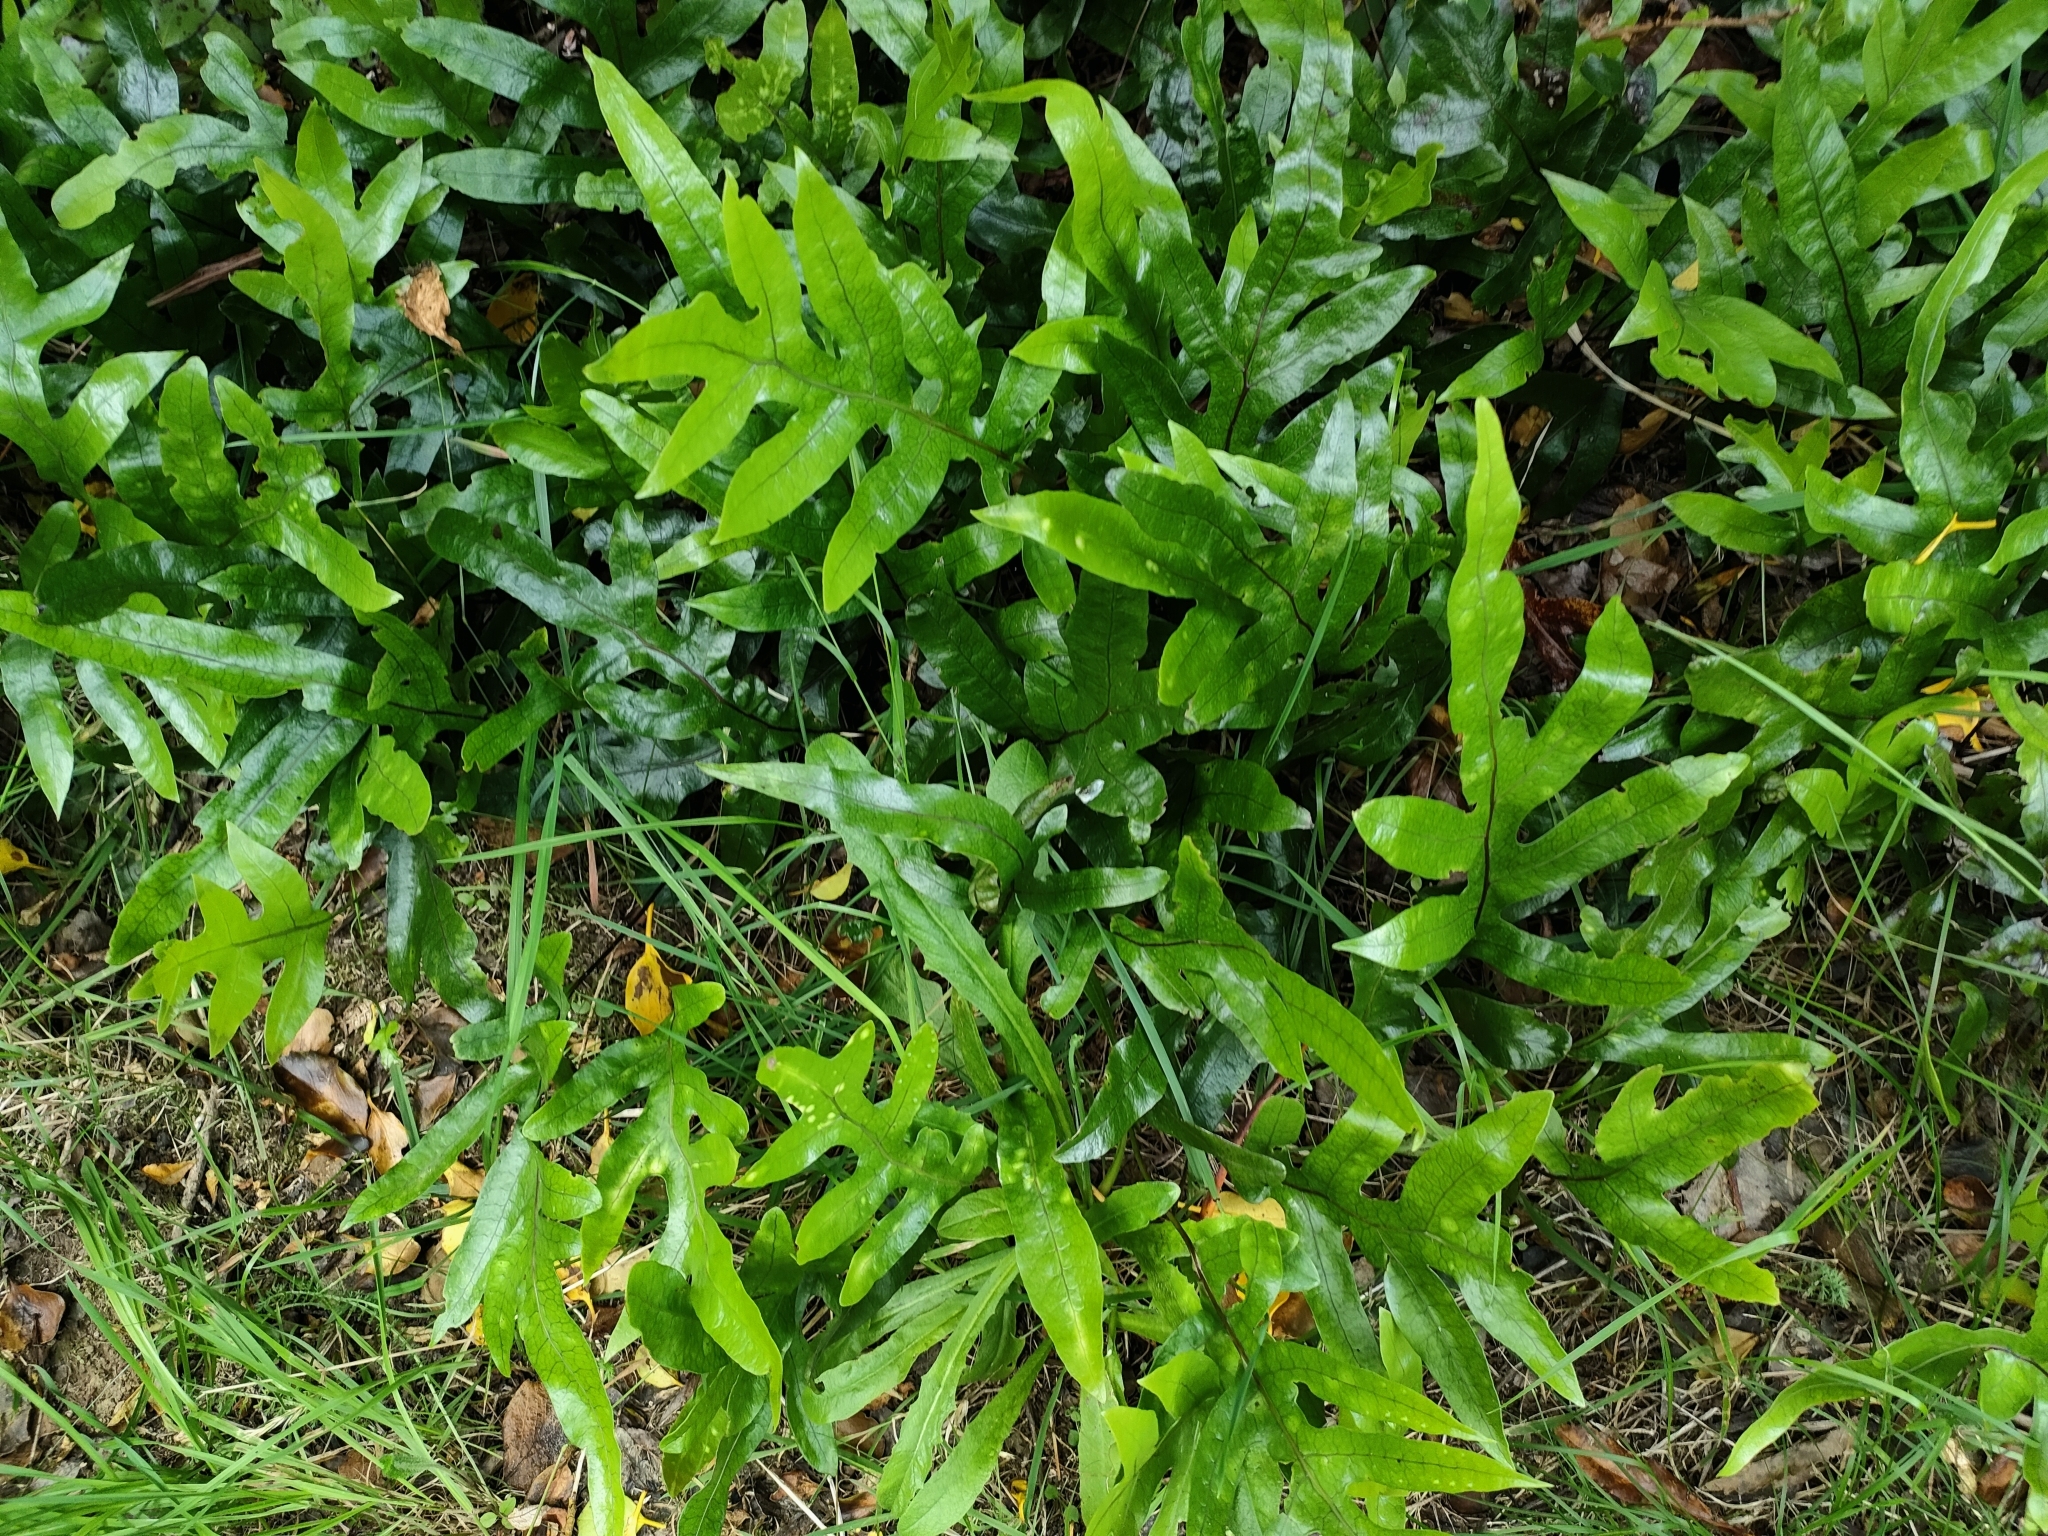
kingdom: Plantae
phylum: Tracheophyta
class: Polypodiopsida
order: Polypodiales
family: Polypodiaceae
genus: Lecanopteris
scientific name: Lecanopteris pustulata
